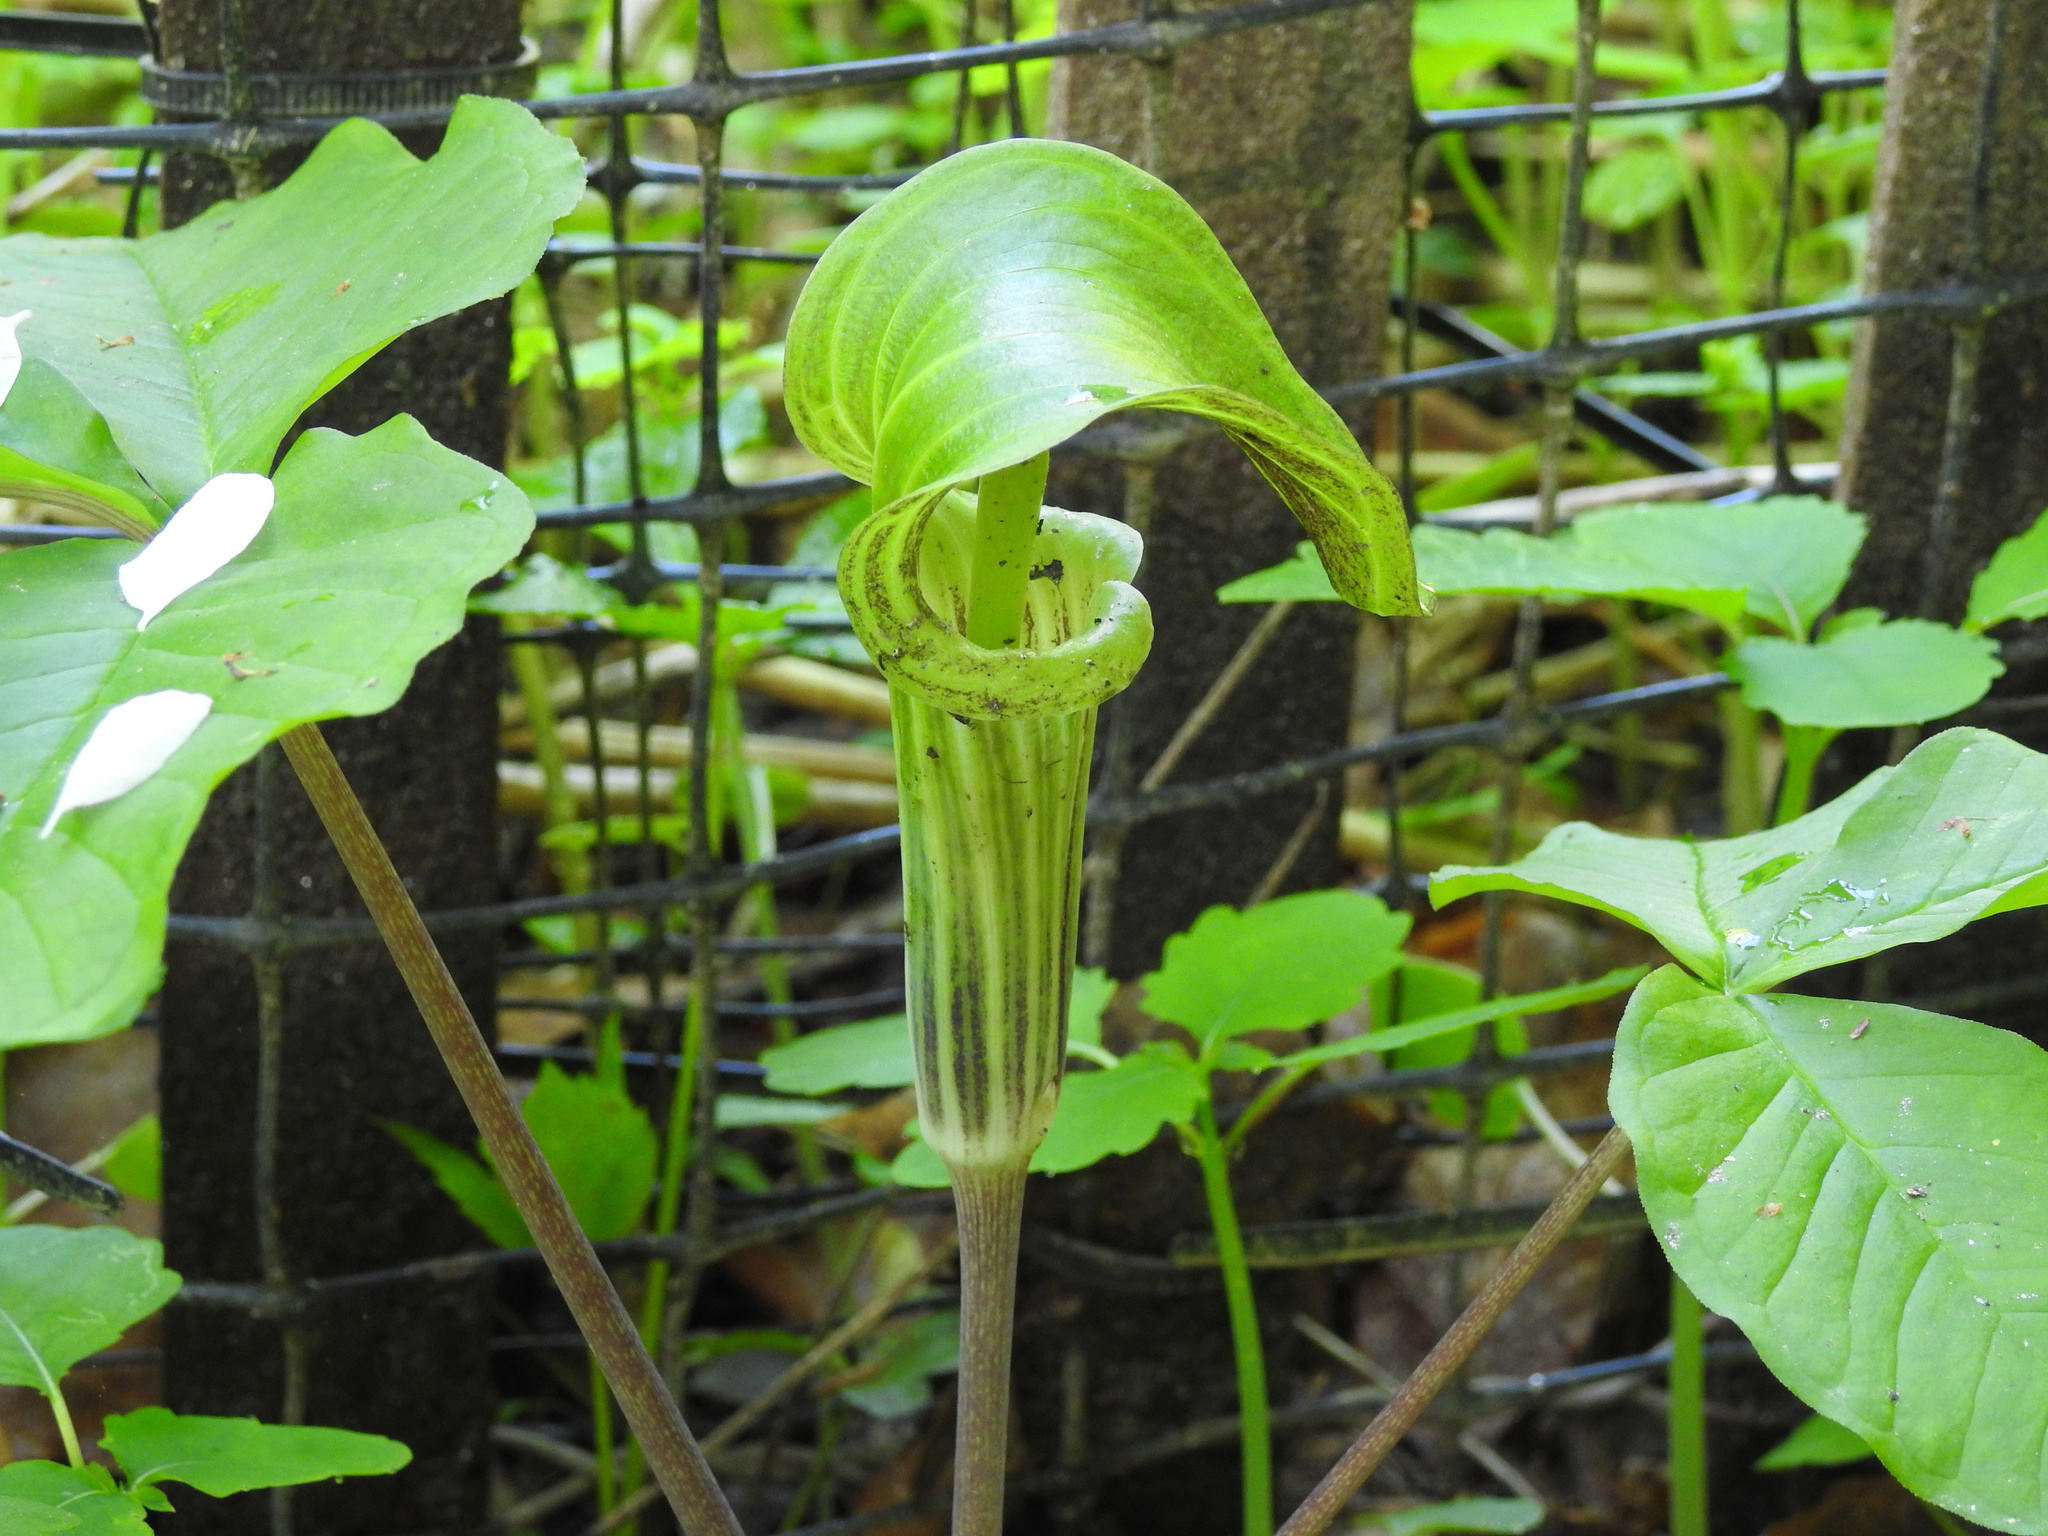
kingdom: Plantae
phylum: Tracheophyta
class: Liliopsida
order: Alismatales
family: Araceae
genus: Arisaema
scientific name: Arisaema triphyllum
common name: Jack-in-the-pulpit
